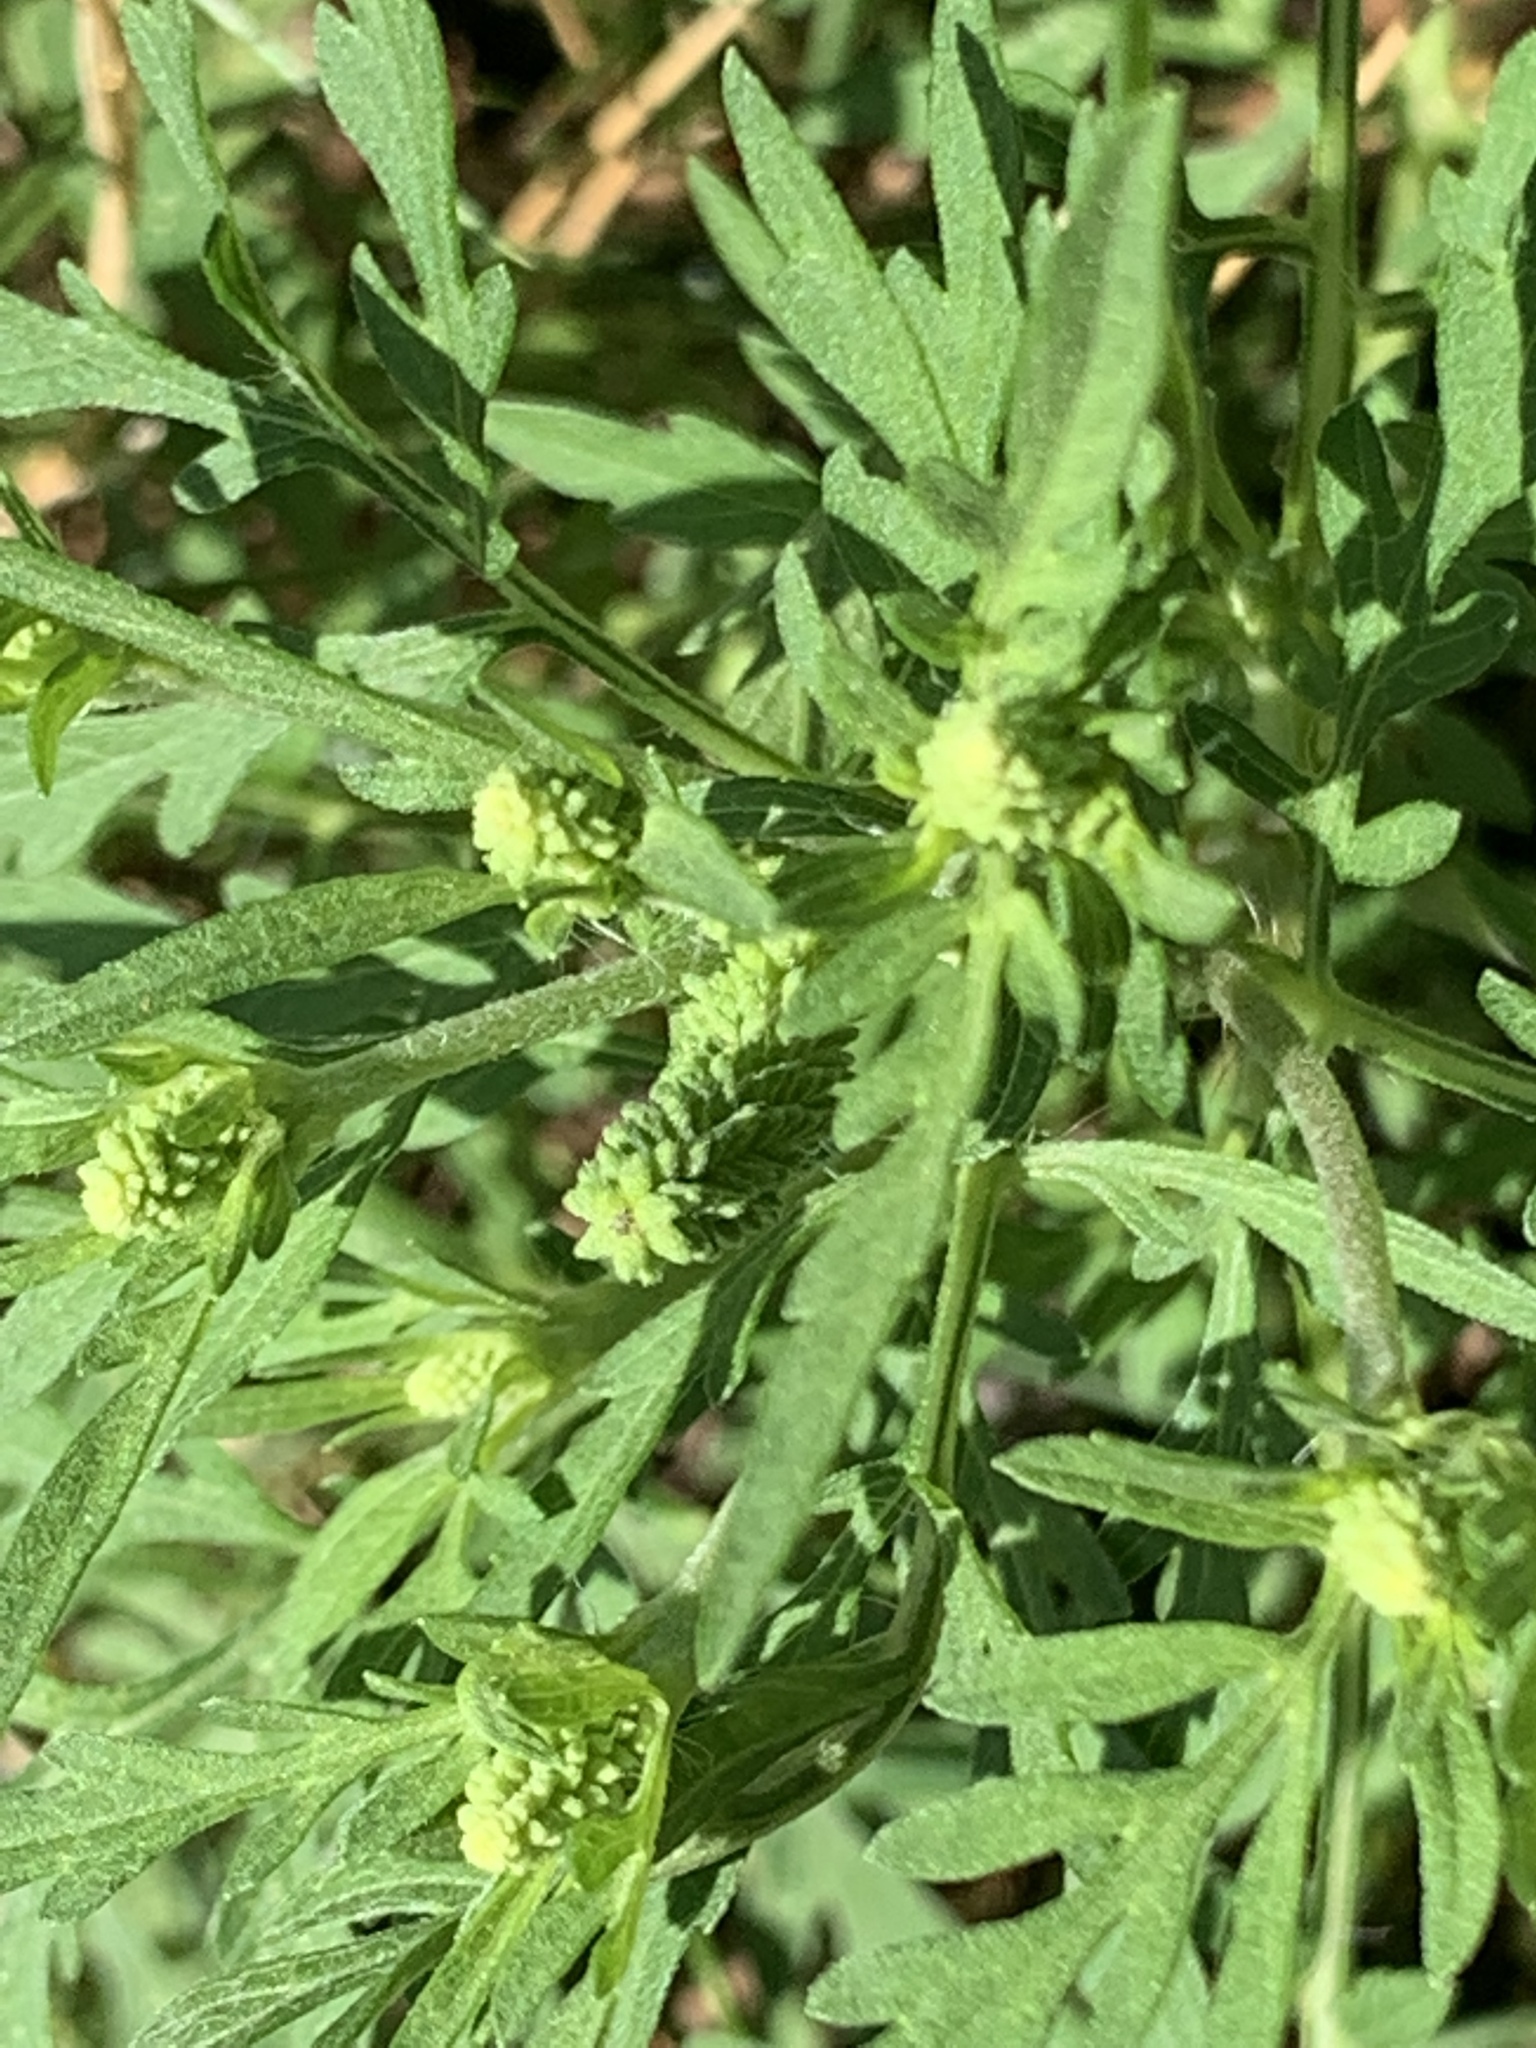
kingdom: Plantae
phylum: Tracheophyta
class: Magnoliopsida
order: Asterales
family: Asteraceae
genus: Ambrosia
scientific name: Ambrosia artemisiifolia
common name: Annual ragweed
